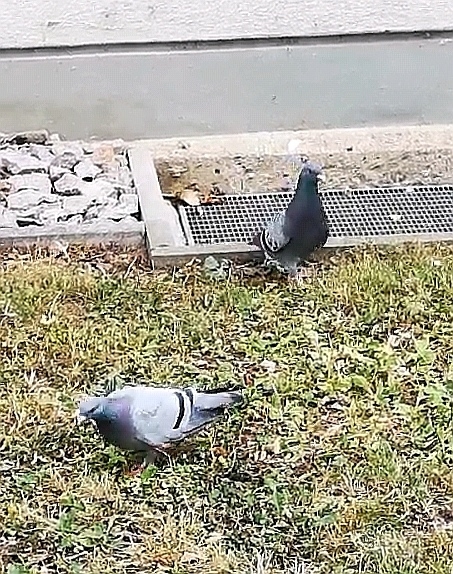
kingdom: Animalia
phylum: Chordata
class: Aves
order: Columbiformes
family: Columbidae
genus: Columba
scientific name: Columba livia
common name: Rock pigeon
